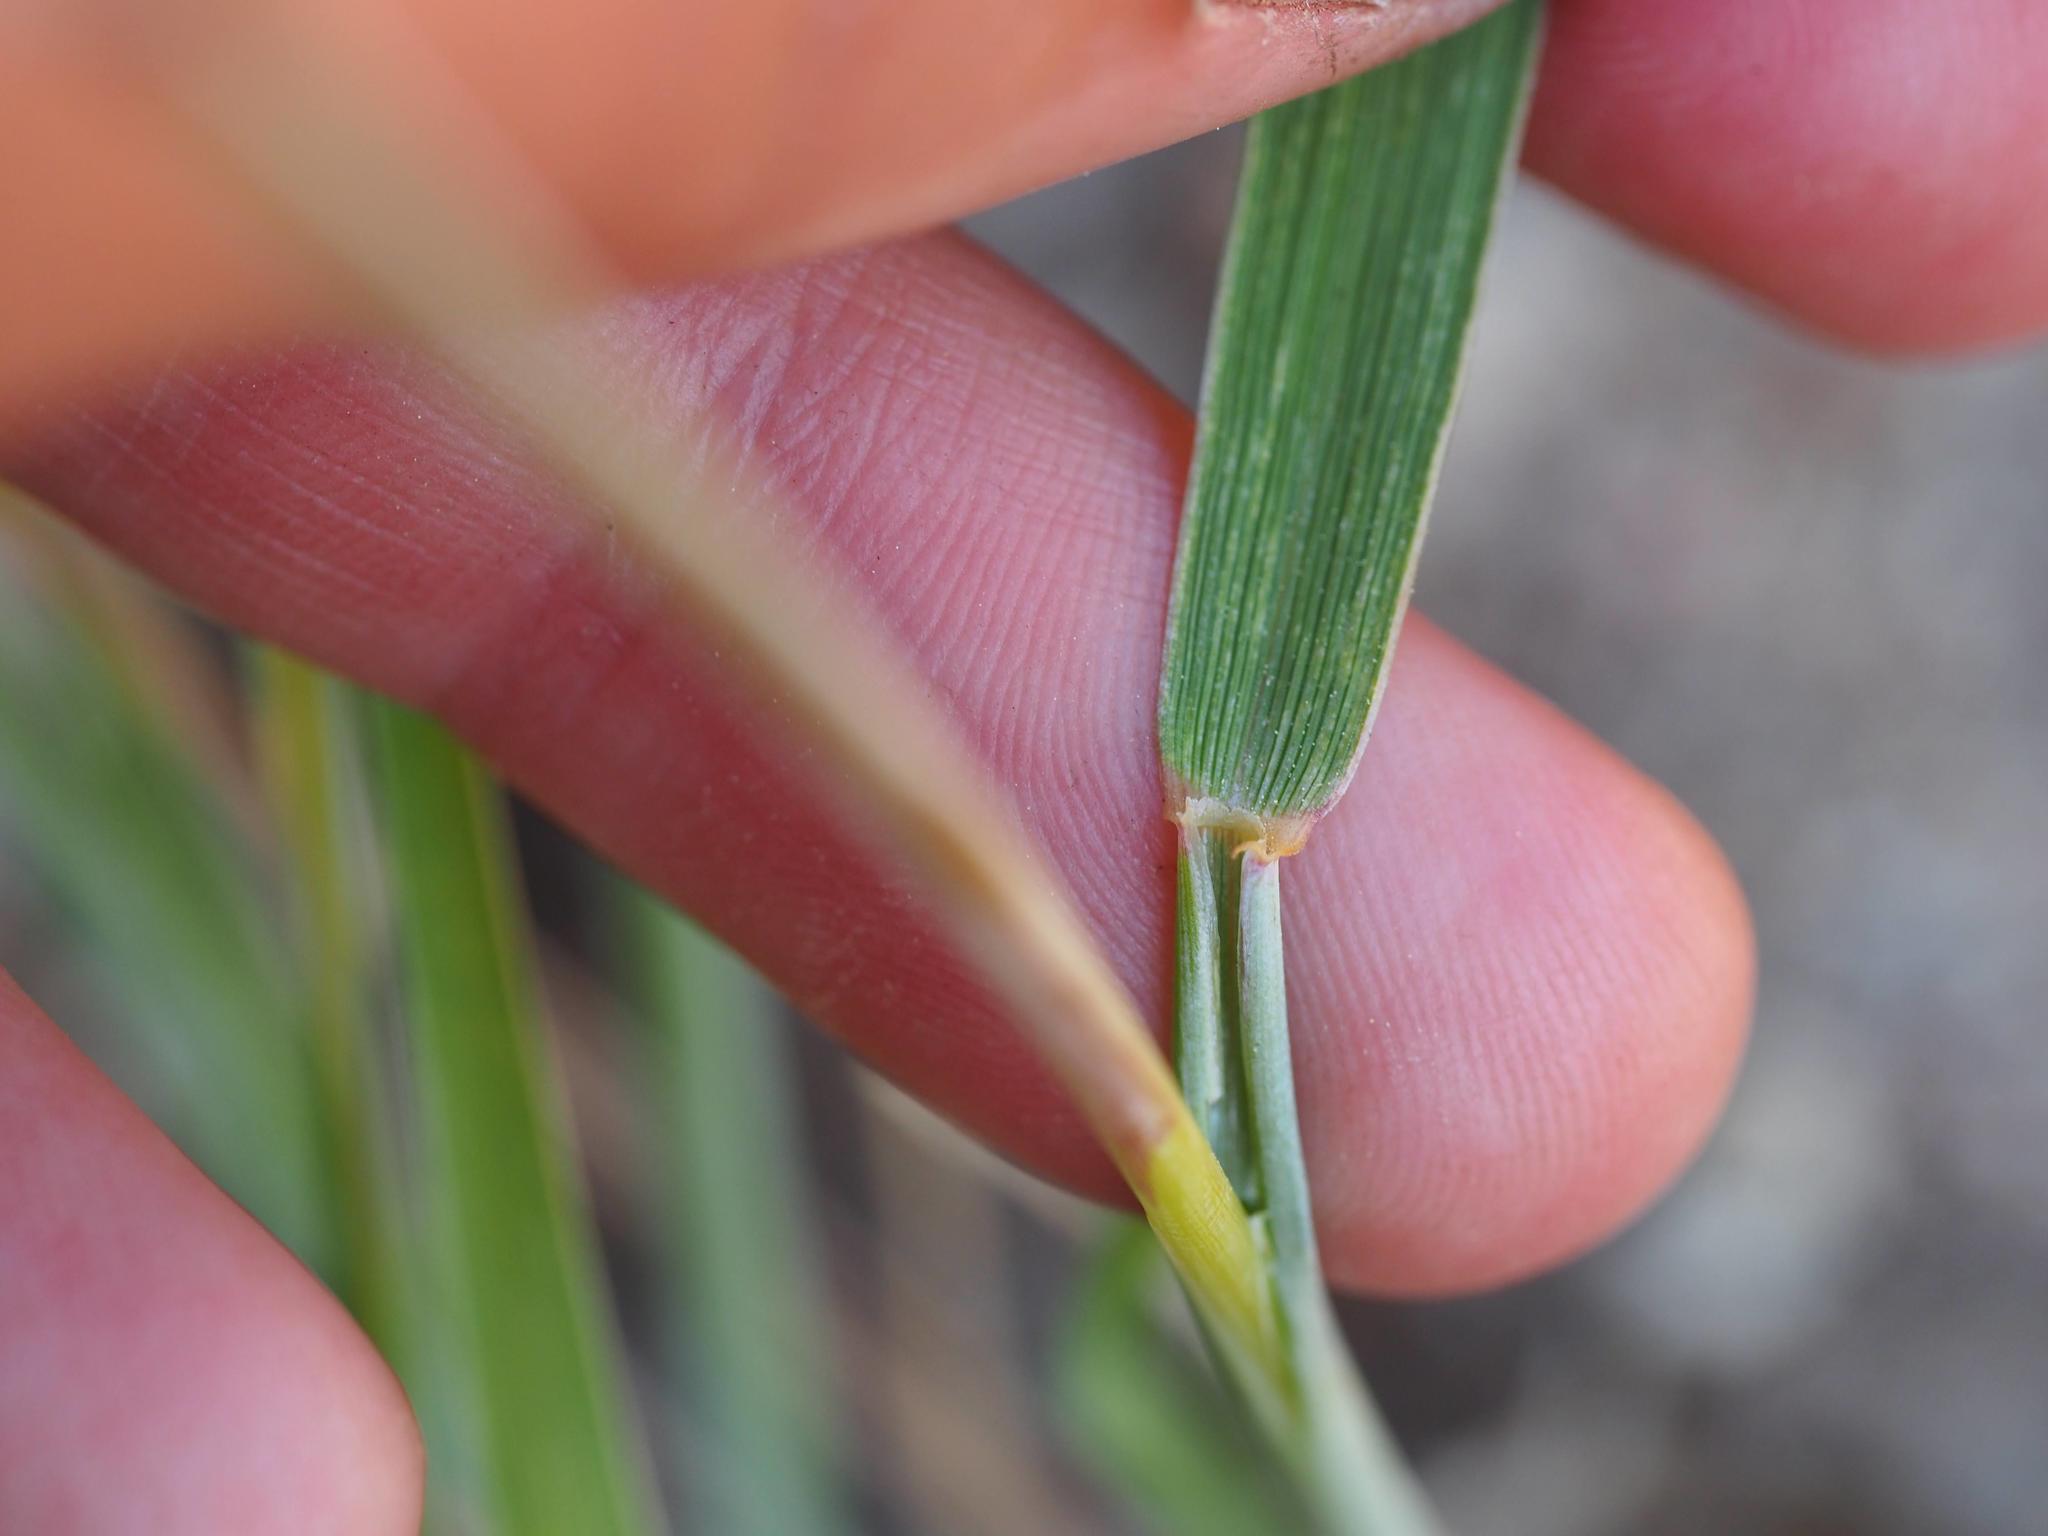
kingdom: Plantae
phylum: Tracheophyta
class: Liliopsida
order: Poales
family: Poaceae
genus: Elymus
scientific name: Elymus violaceus
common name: Arctic wheatgrass
